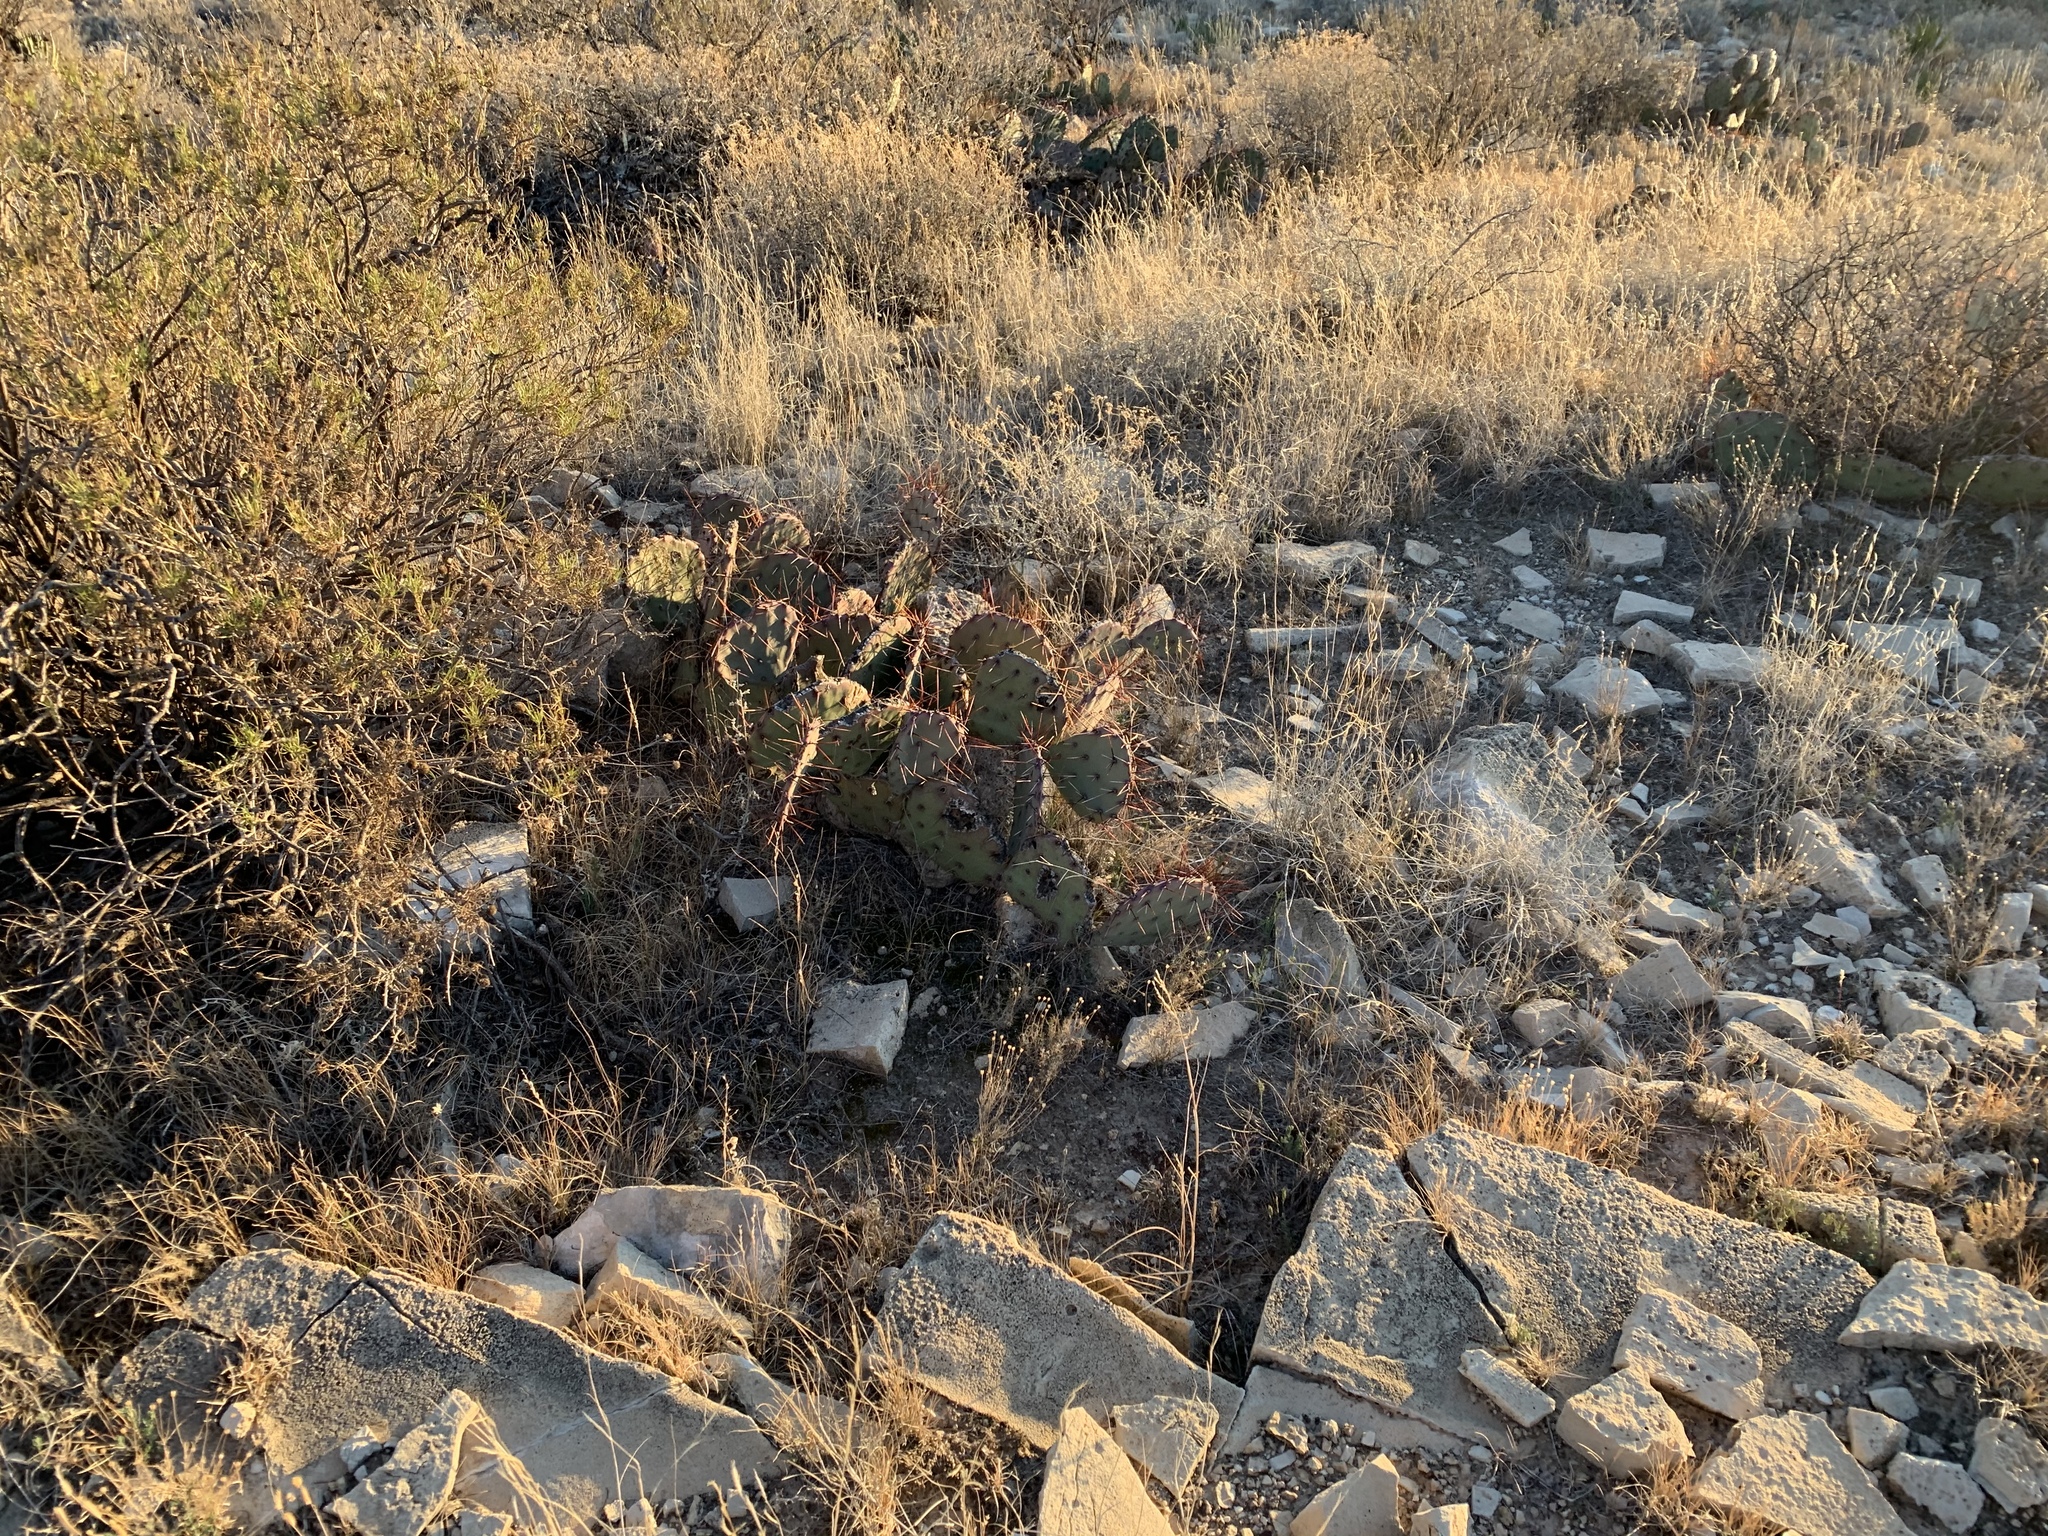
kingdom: Plantae
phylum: Tracheophyta
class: Magnoliopsida
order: Caryophyllales
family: Cactaceae
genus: Opuntia
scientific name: Opuntia phaeacantha
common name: New mexico prickly-pear
